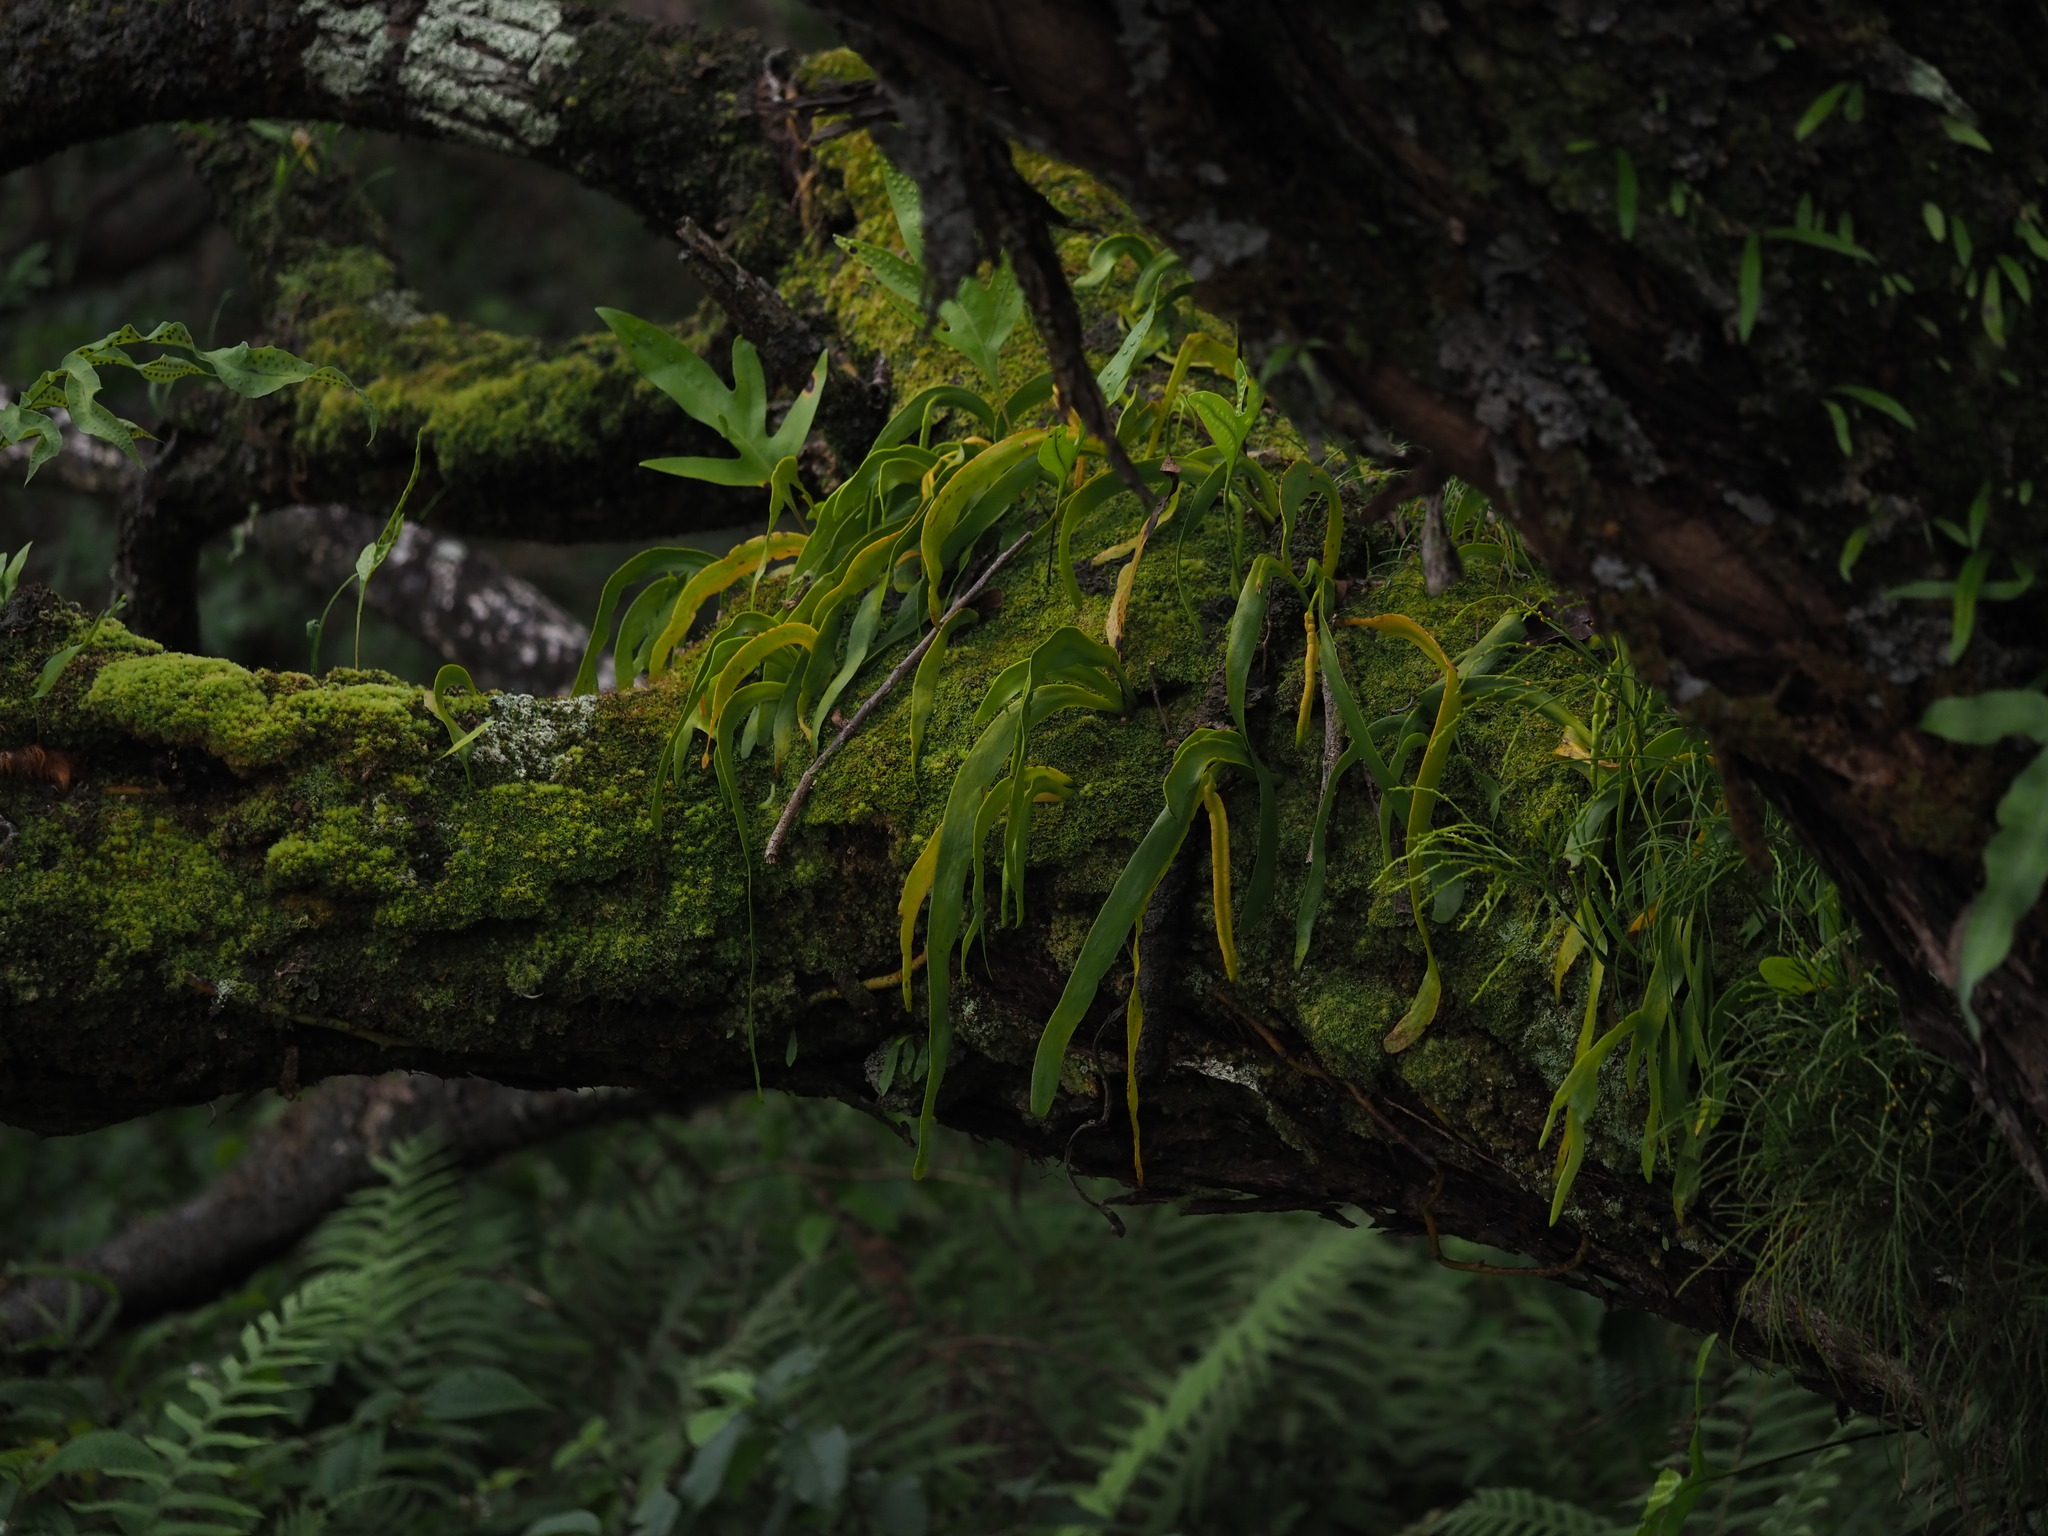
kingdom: Plantae
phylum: Tracheophyta
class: Polypodiopsida
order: Ophioglossales
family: Ophioglossaceae
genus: Ophioderma
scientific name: Ophioderma falcatum
